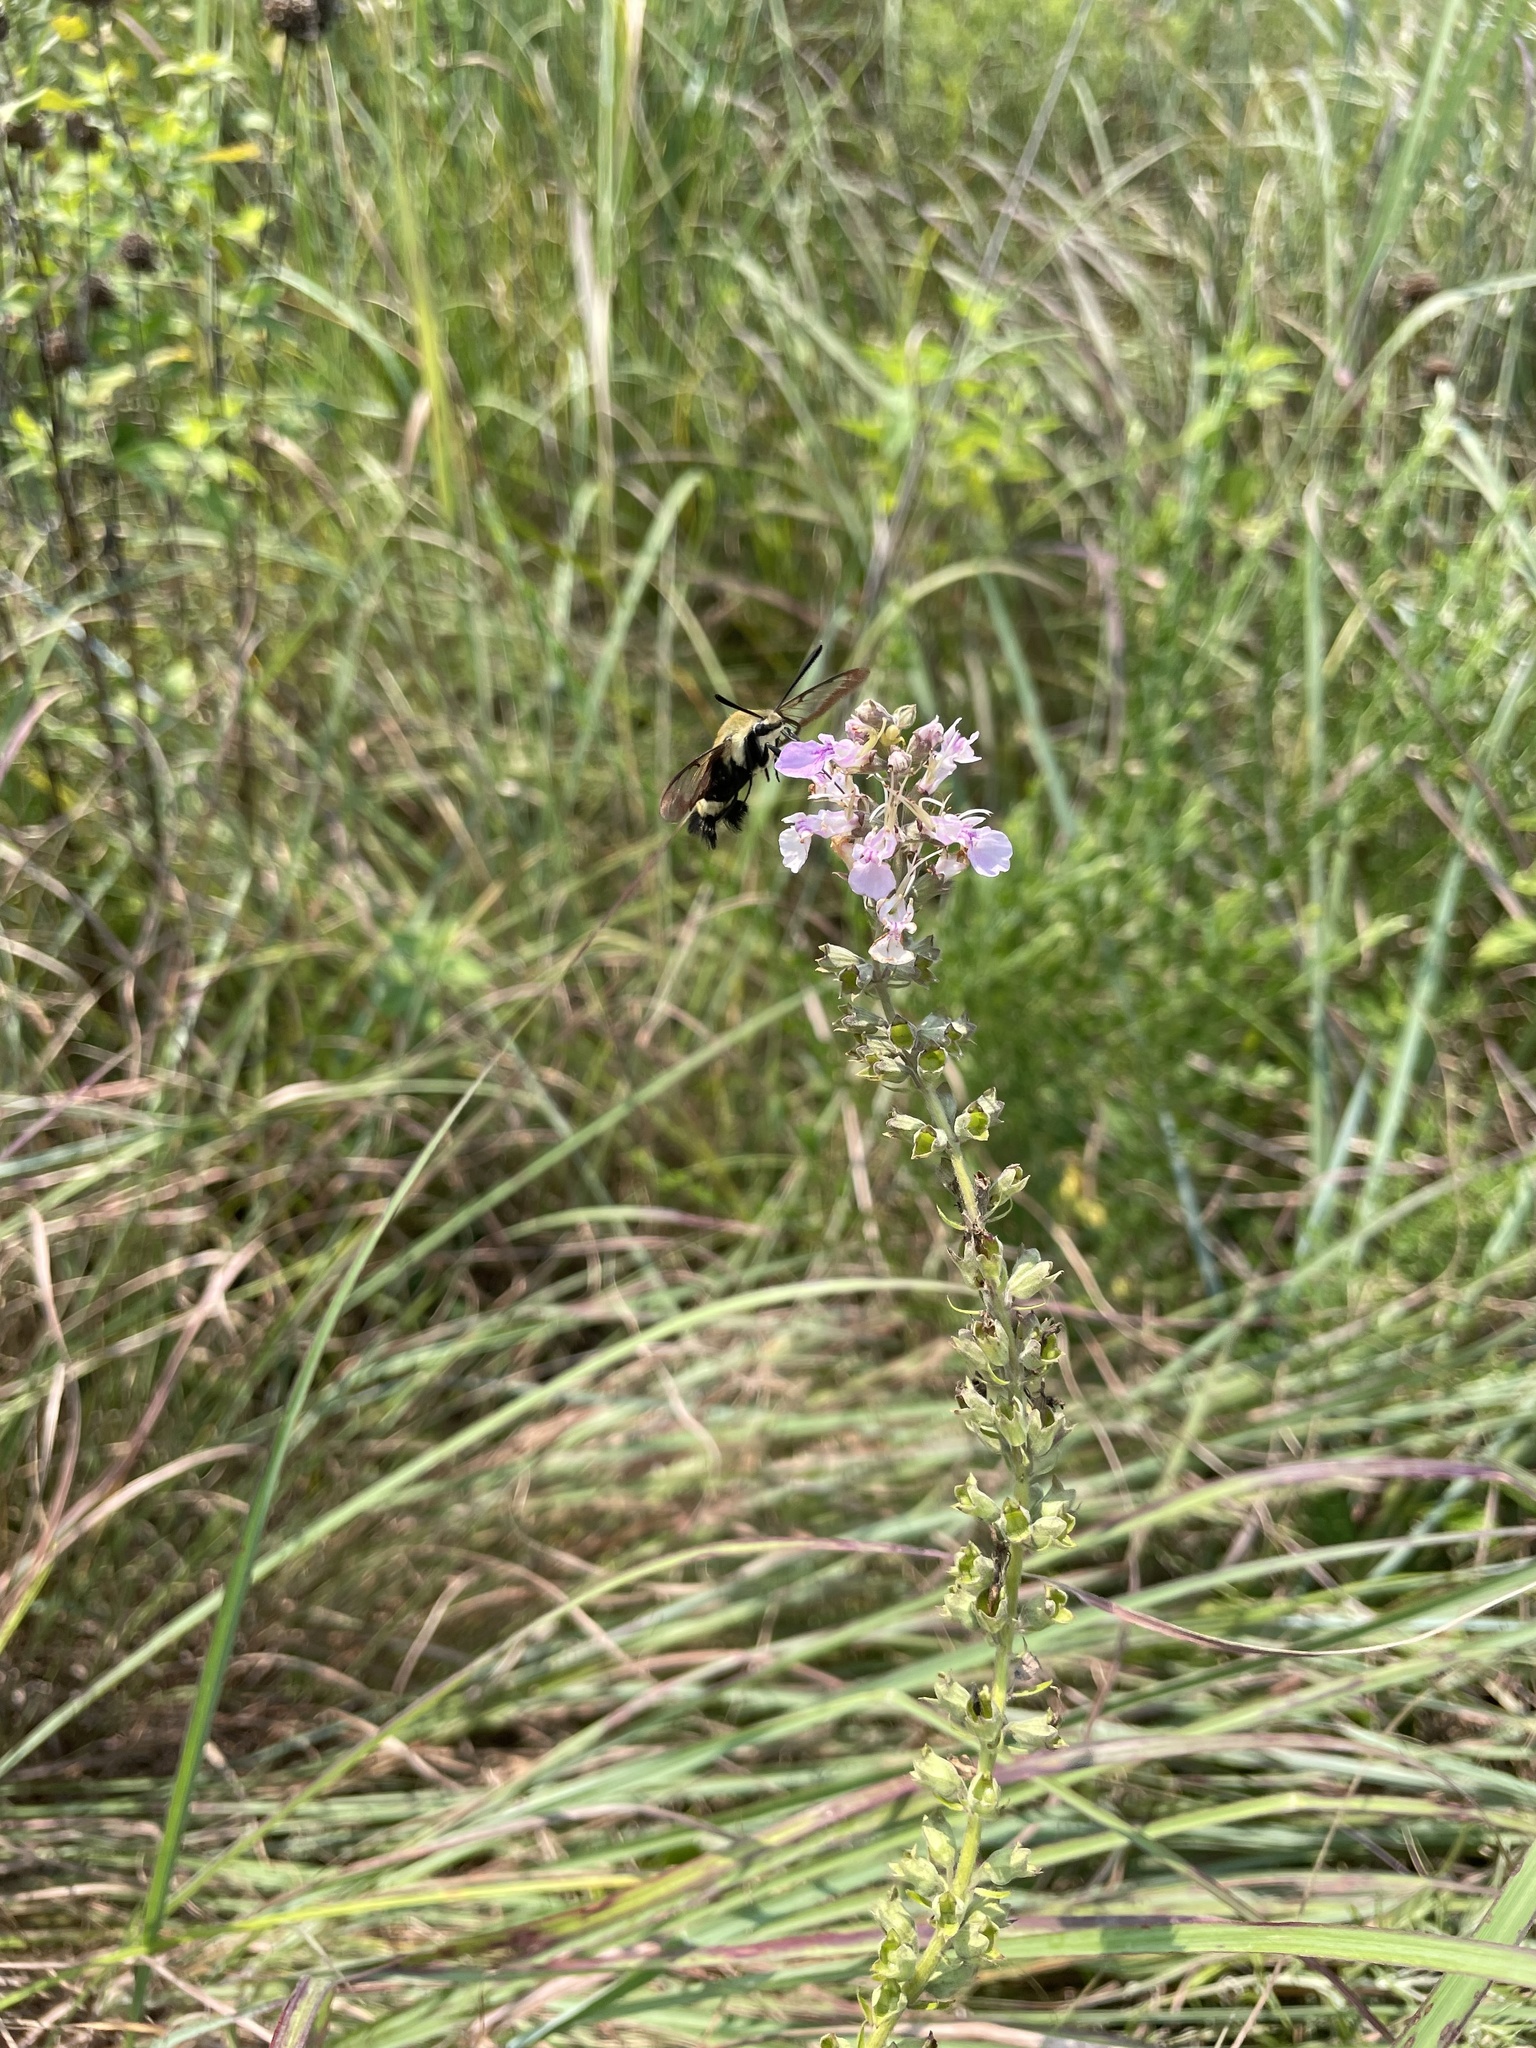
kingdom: Animalia
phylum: Arthropoda
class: Insecta
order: Lepidoptera
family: Sphingidae
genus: Hemaris
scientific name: Hemaris diffinis
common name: Bumblebee moth
